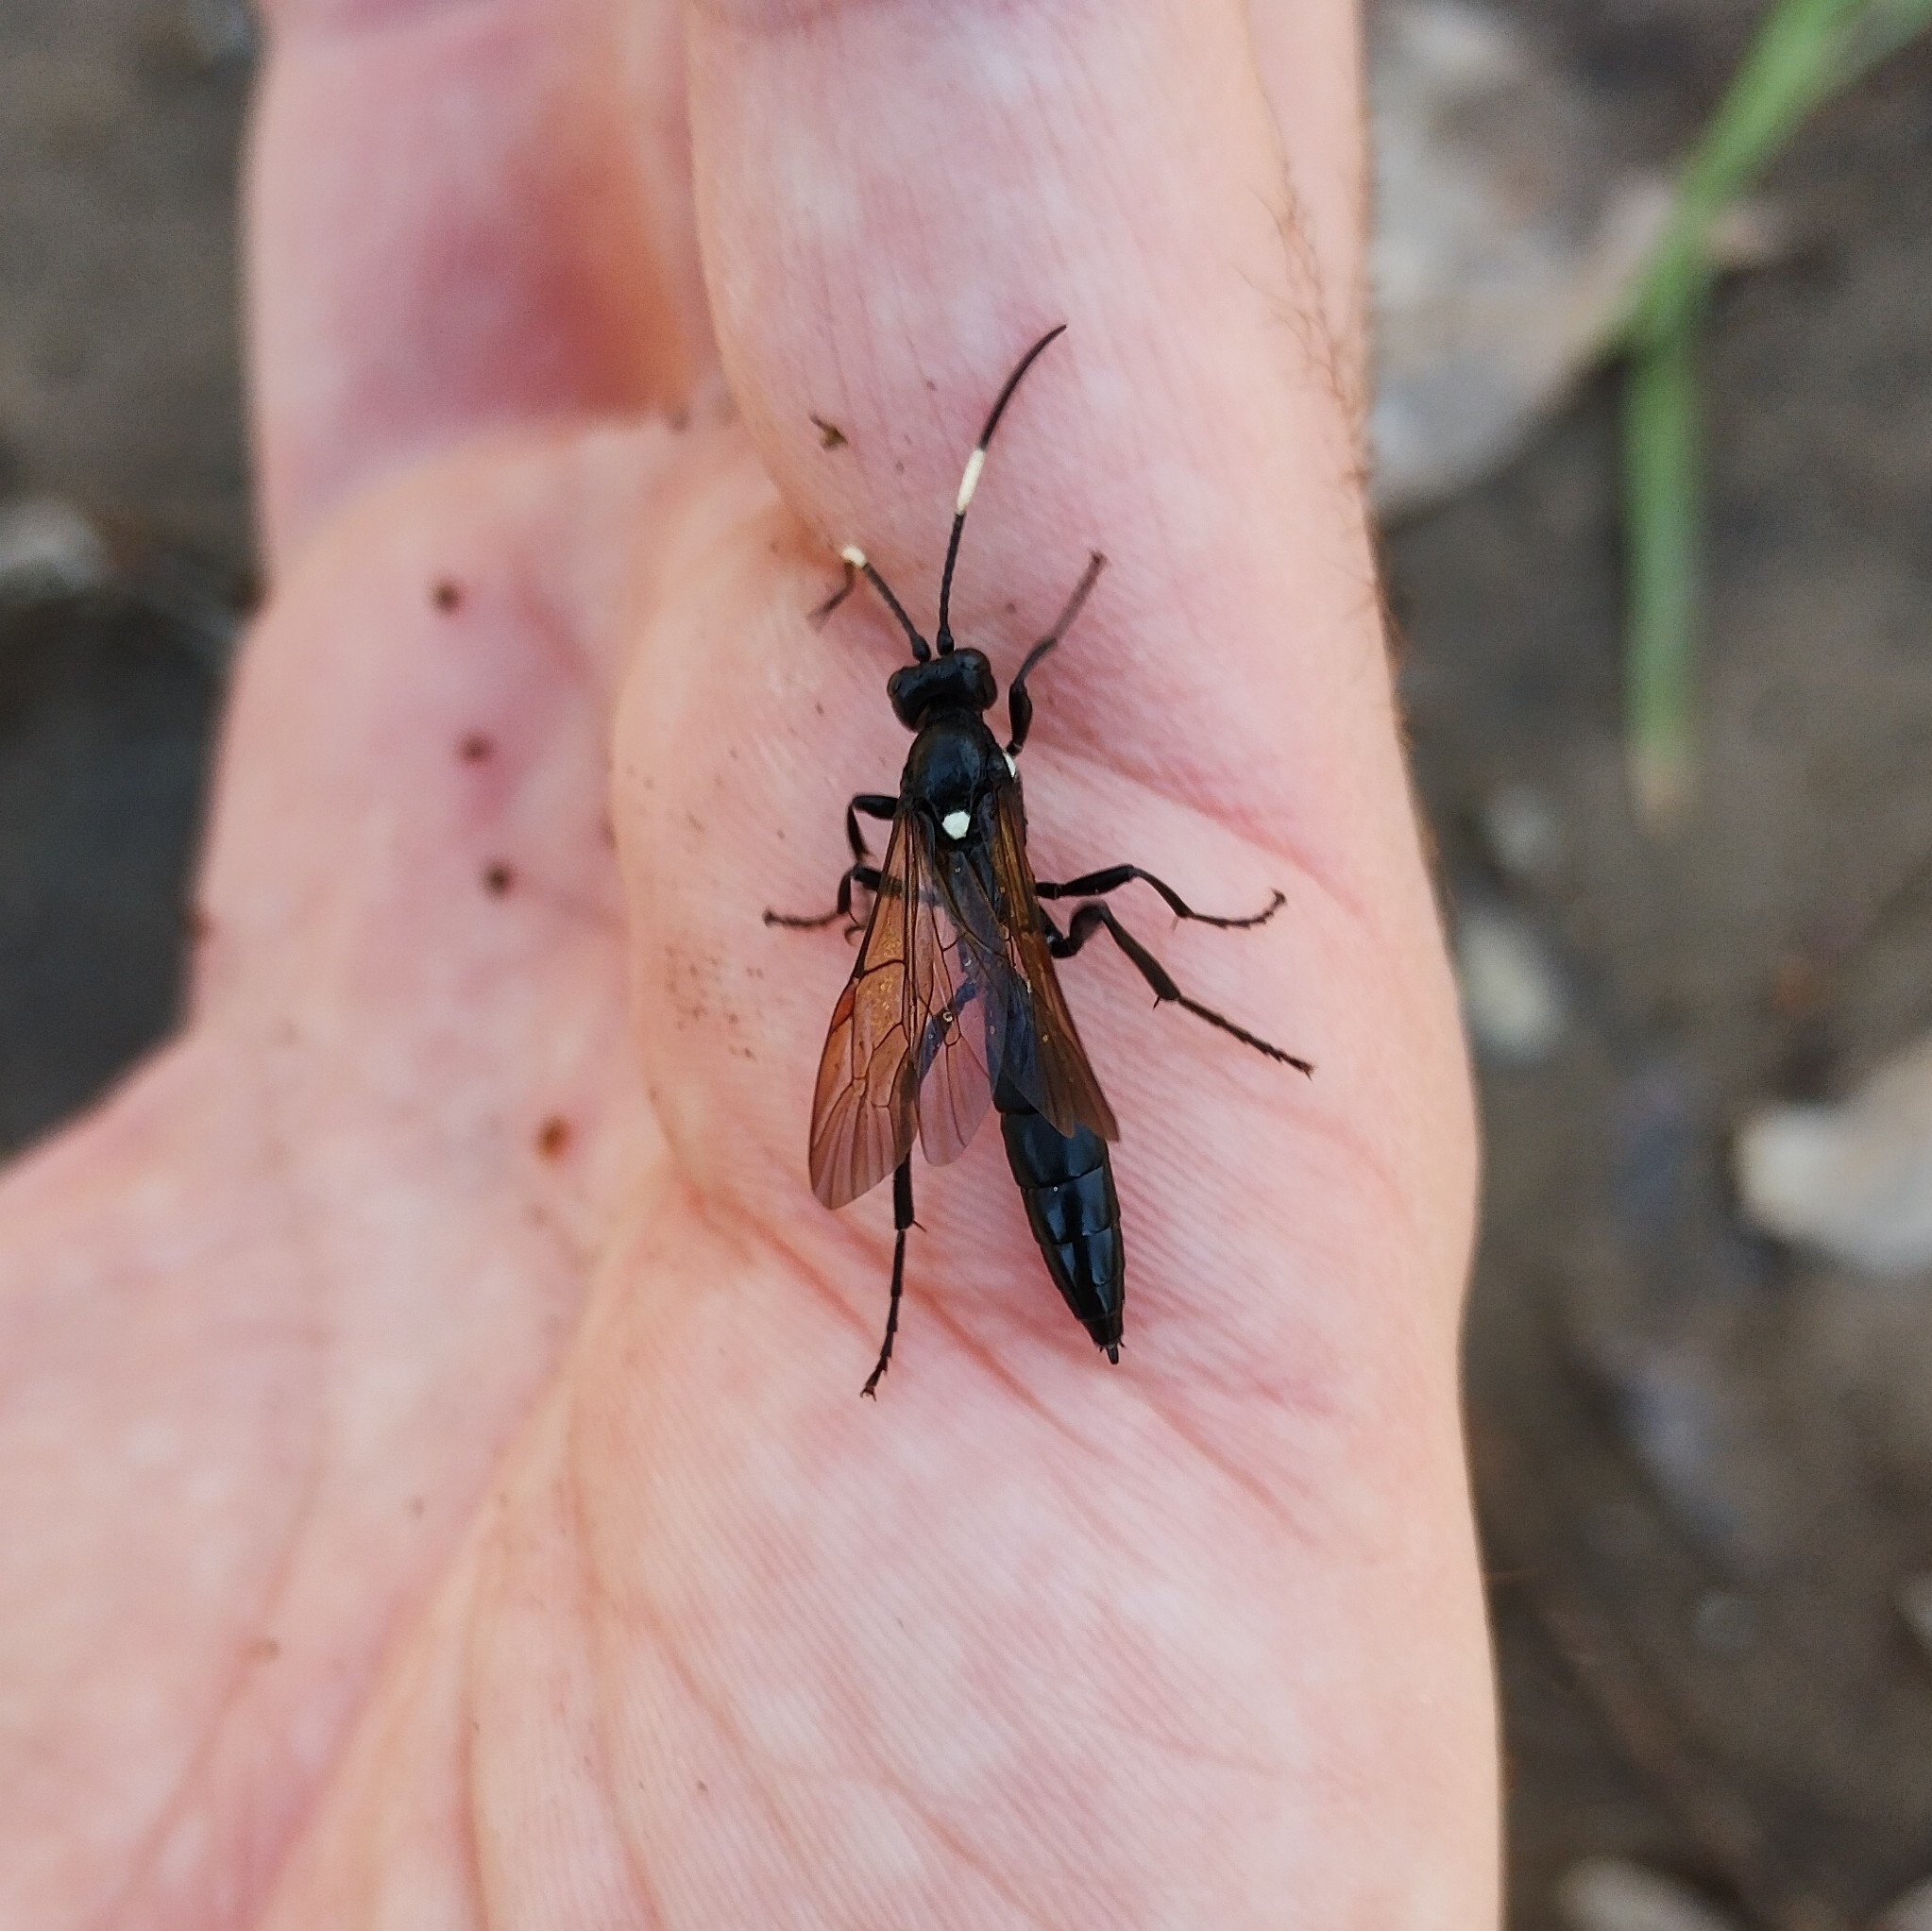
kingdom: Animalia
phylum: Arthropoda
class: Insecta
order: Hymenoptera
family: Ichneumonidae
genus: Ichneumon
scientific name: Ichneumon lugens
